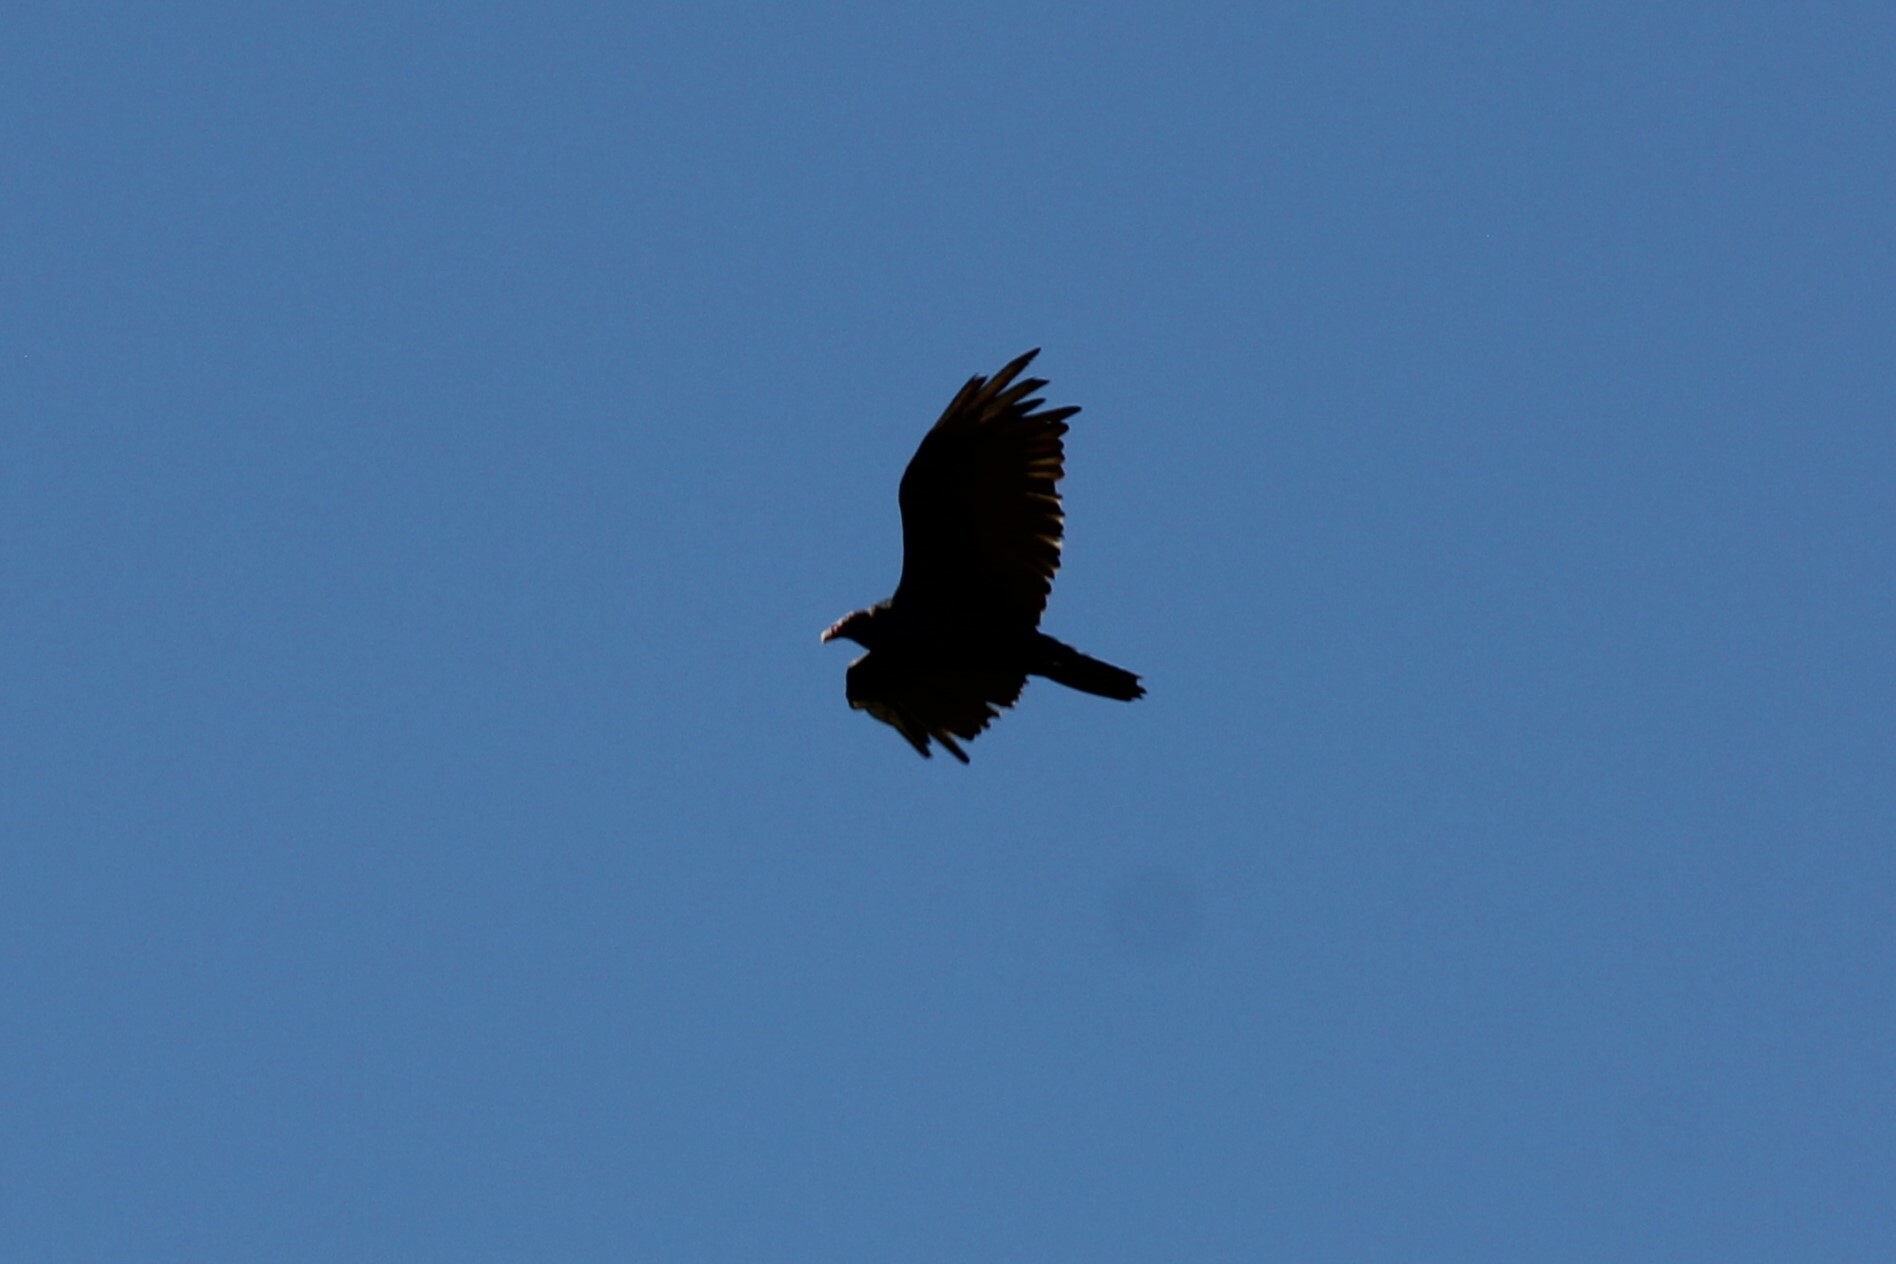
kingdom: Animalia
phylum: Chordata
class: Aves
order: Accipitriformes
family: Cathartidae
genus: Cathartes
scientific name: Cathartes aura
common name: Turkey vulture
